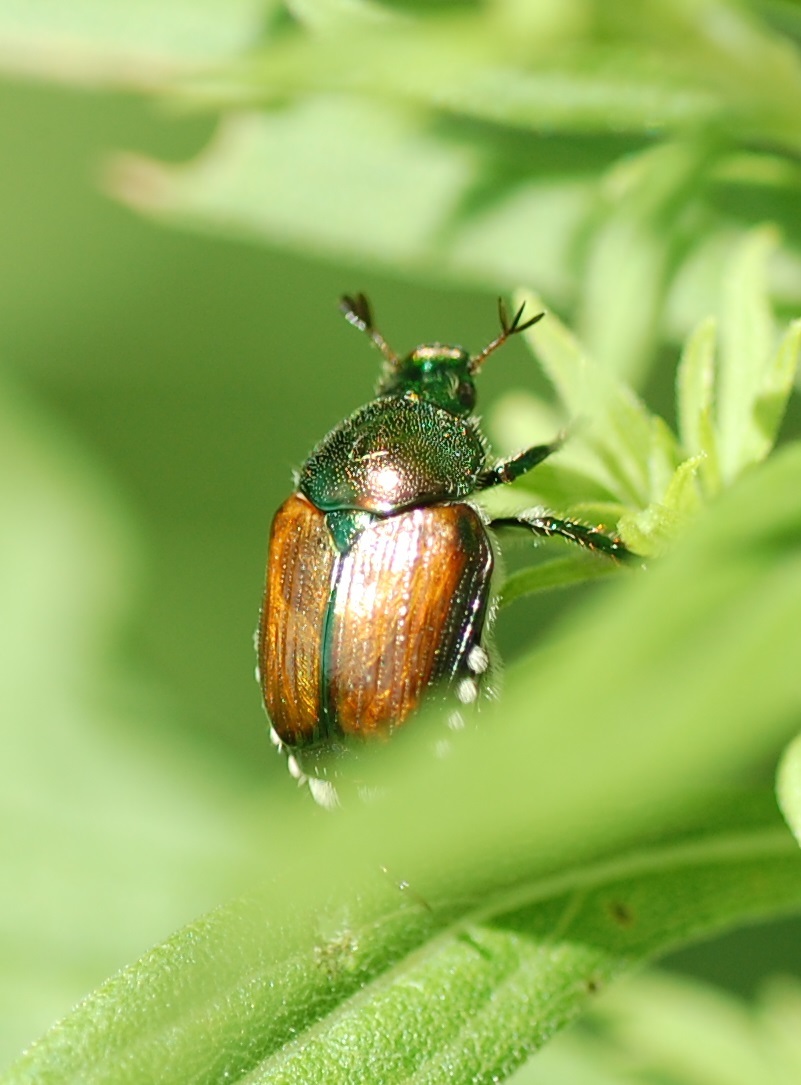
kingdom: Animalia
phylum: Arthropoda
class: Insecta
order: Coleoptera
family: Scarabaeidae
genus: Popillia
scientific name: Popillia japonica
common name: Japanese beetle
